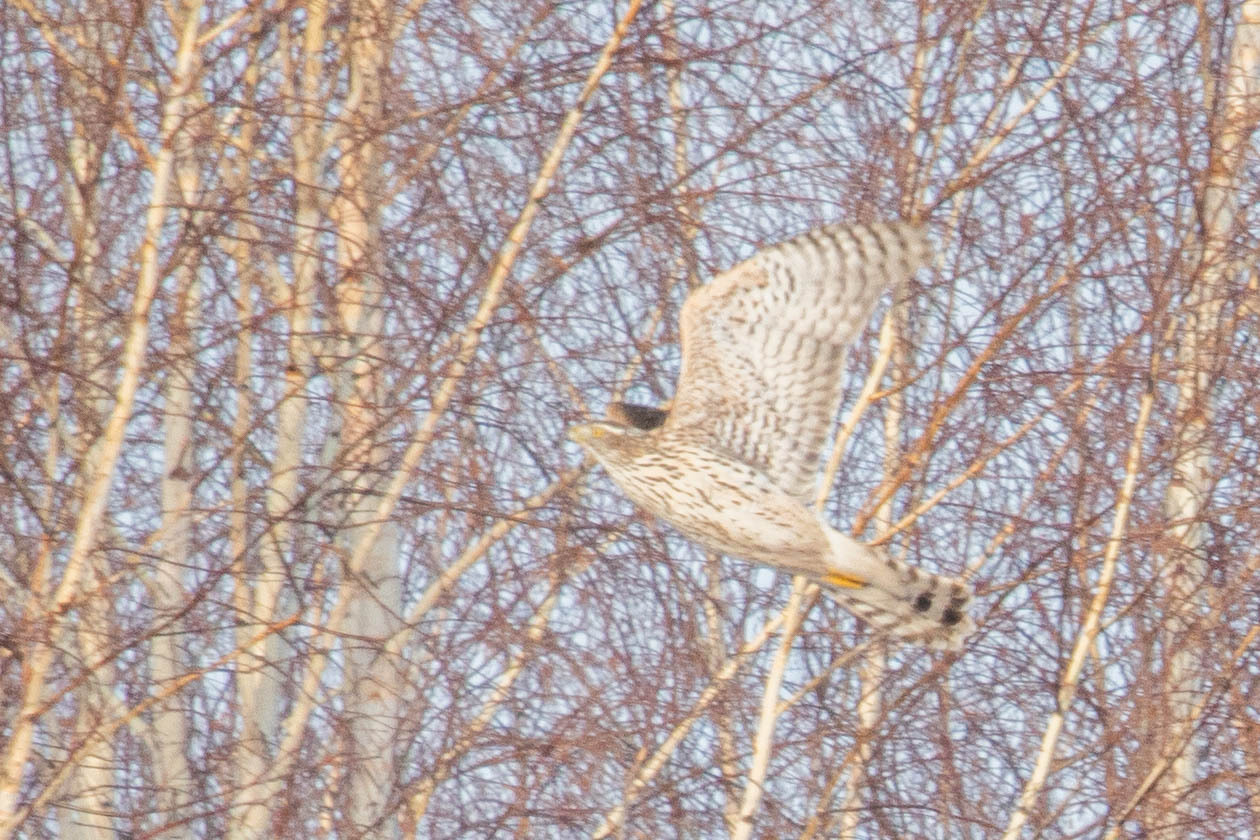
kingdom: Animalia
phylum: Chordata
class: Aves
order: Accipitriformes
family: Accipitridae
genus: Accipiter
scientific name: Accipiter gentilis
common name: Northern goshawk
